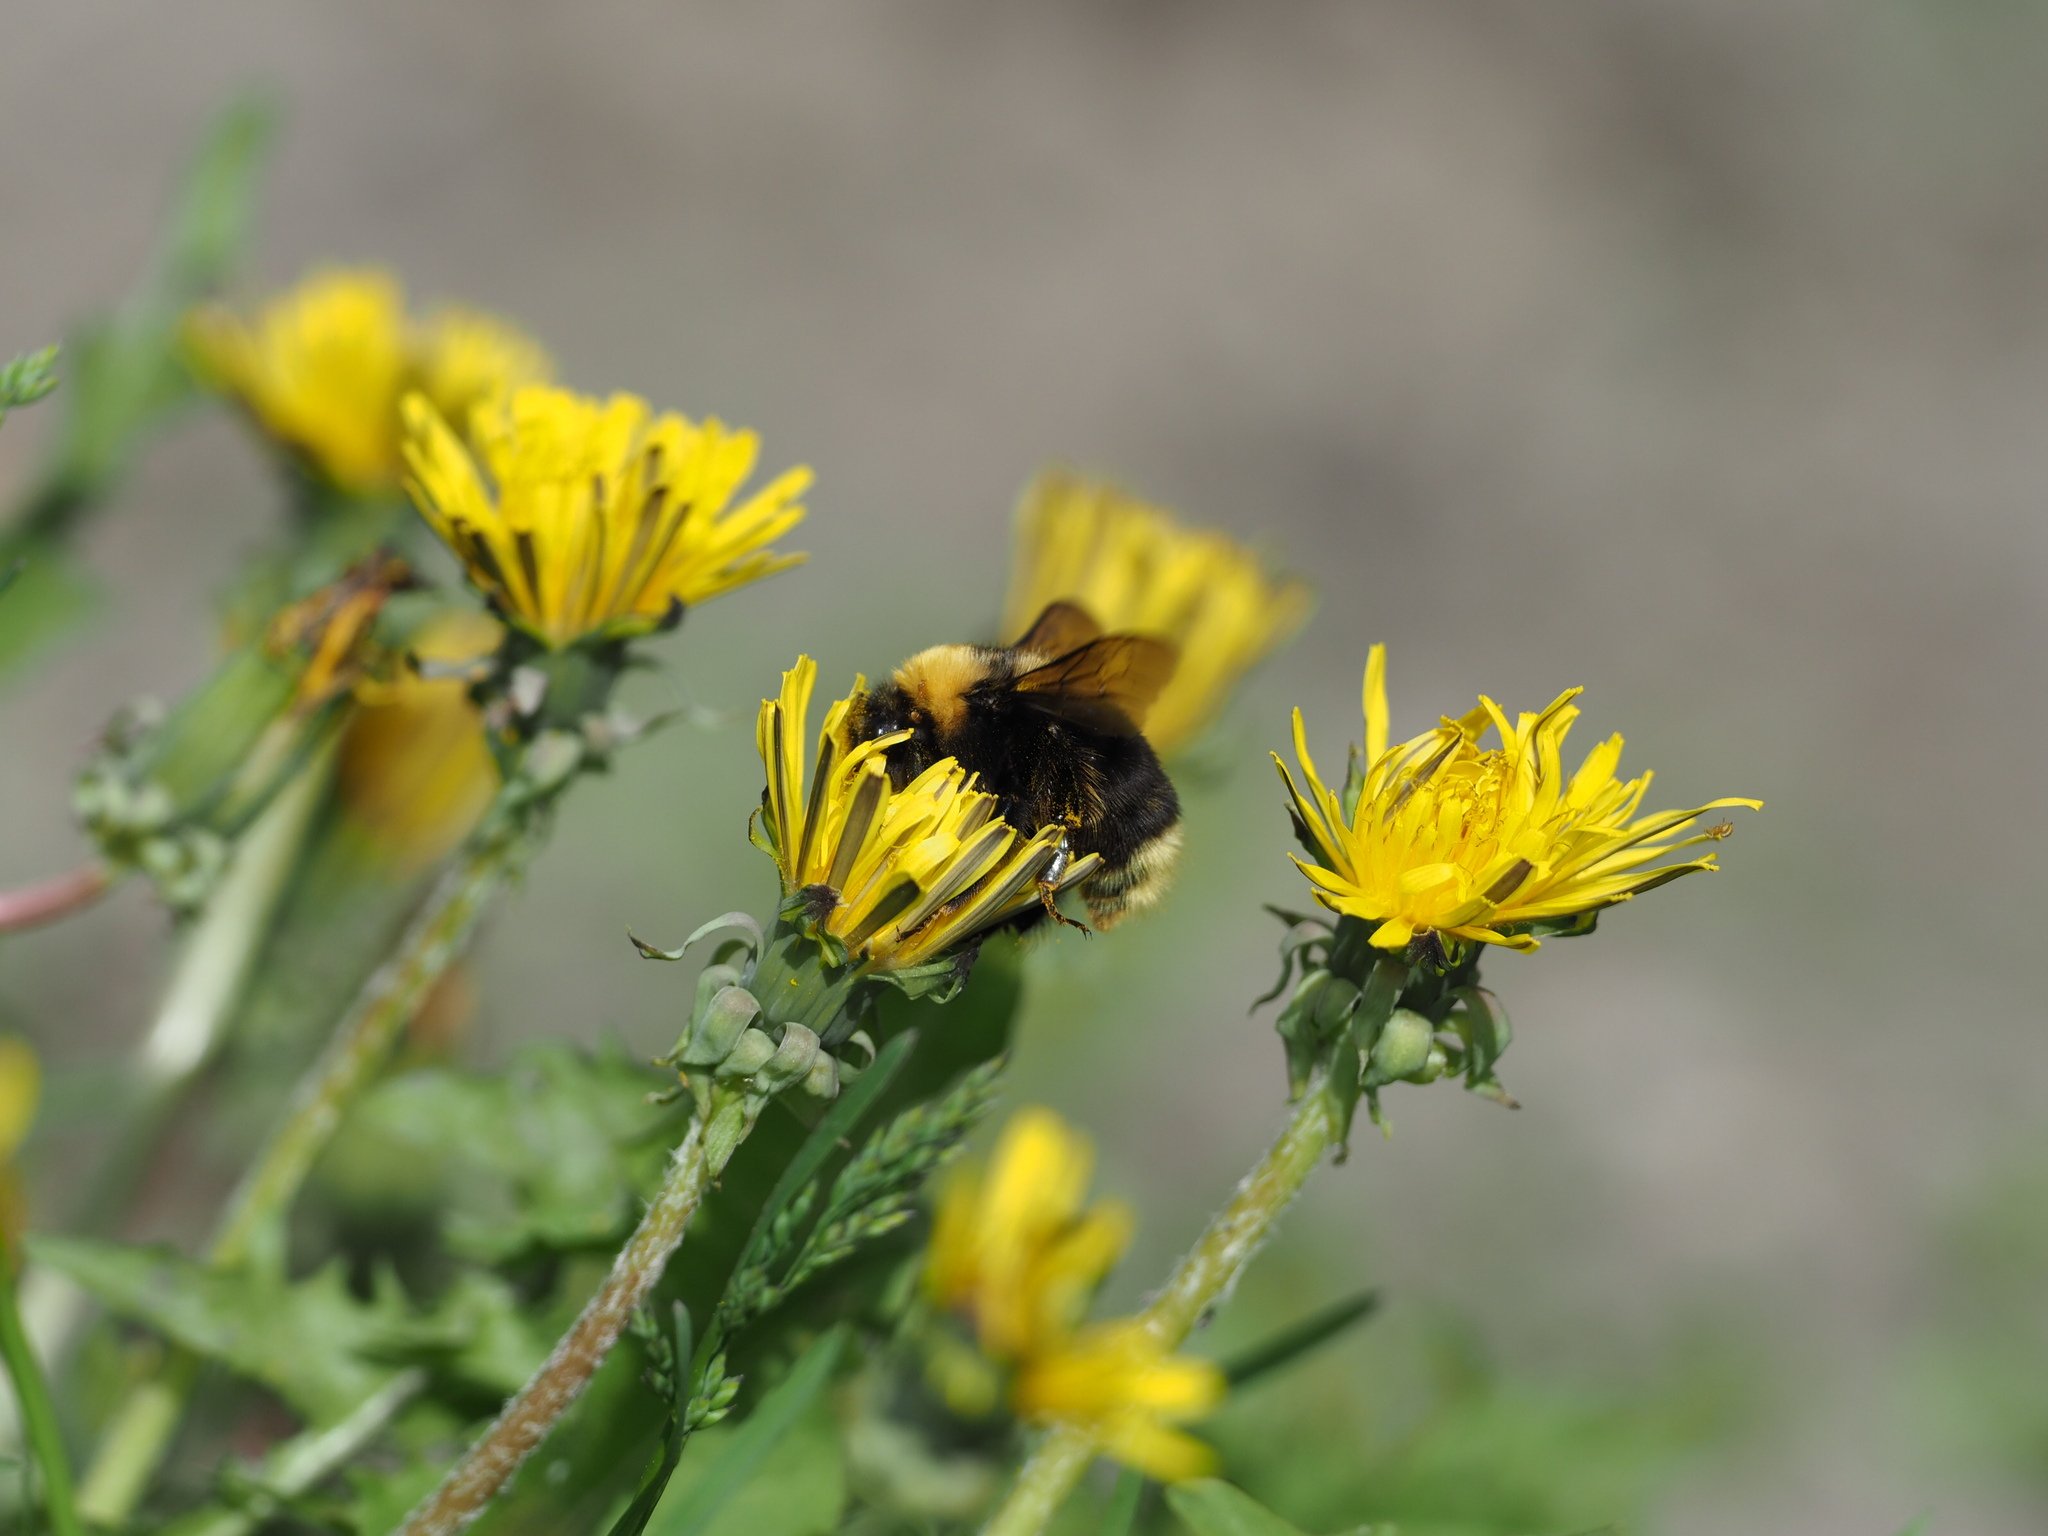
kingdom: Animalia
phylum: Arthropoda
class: Insecta
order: Hymenoptera
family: Apidae
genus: Bombus
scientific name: Bombus occidentalis
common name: Western bumble bee
